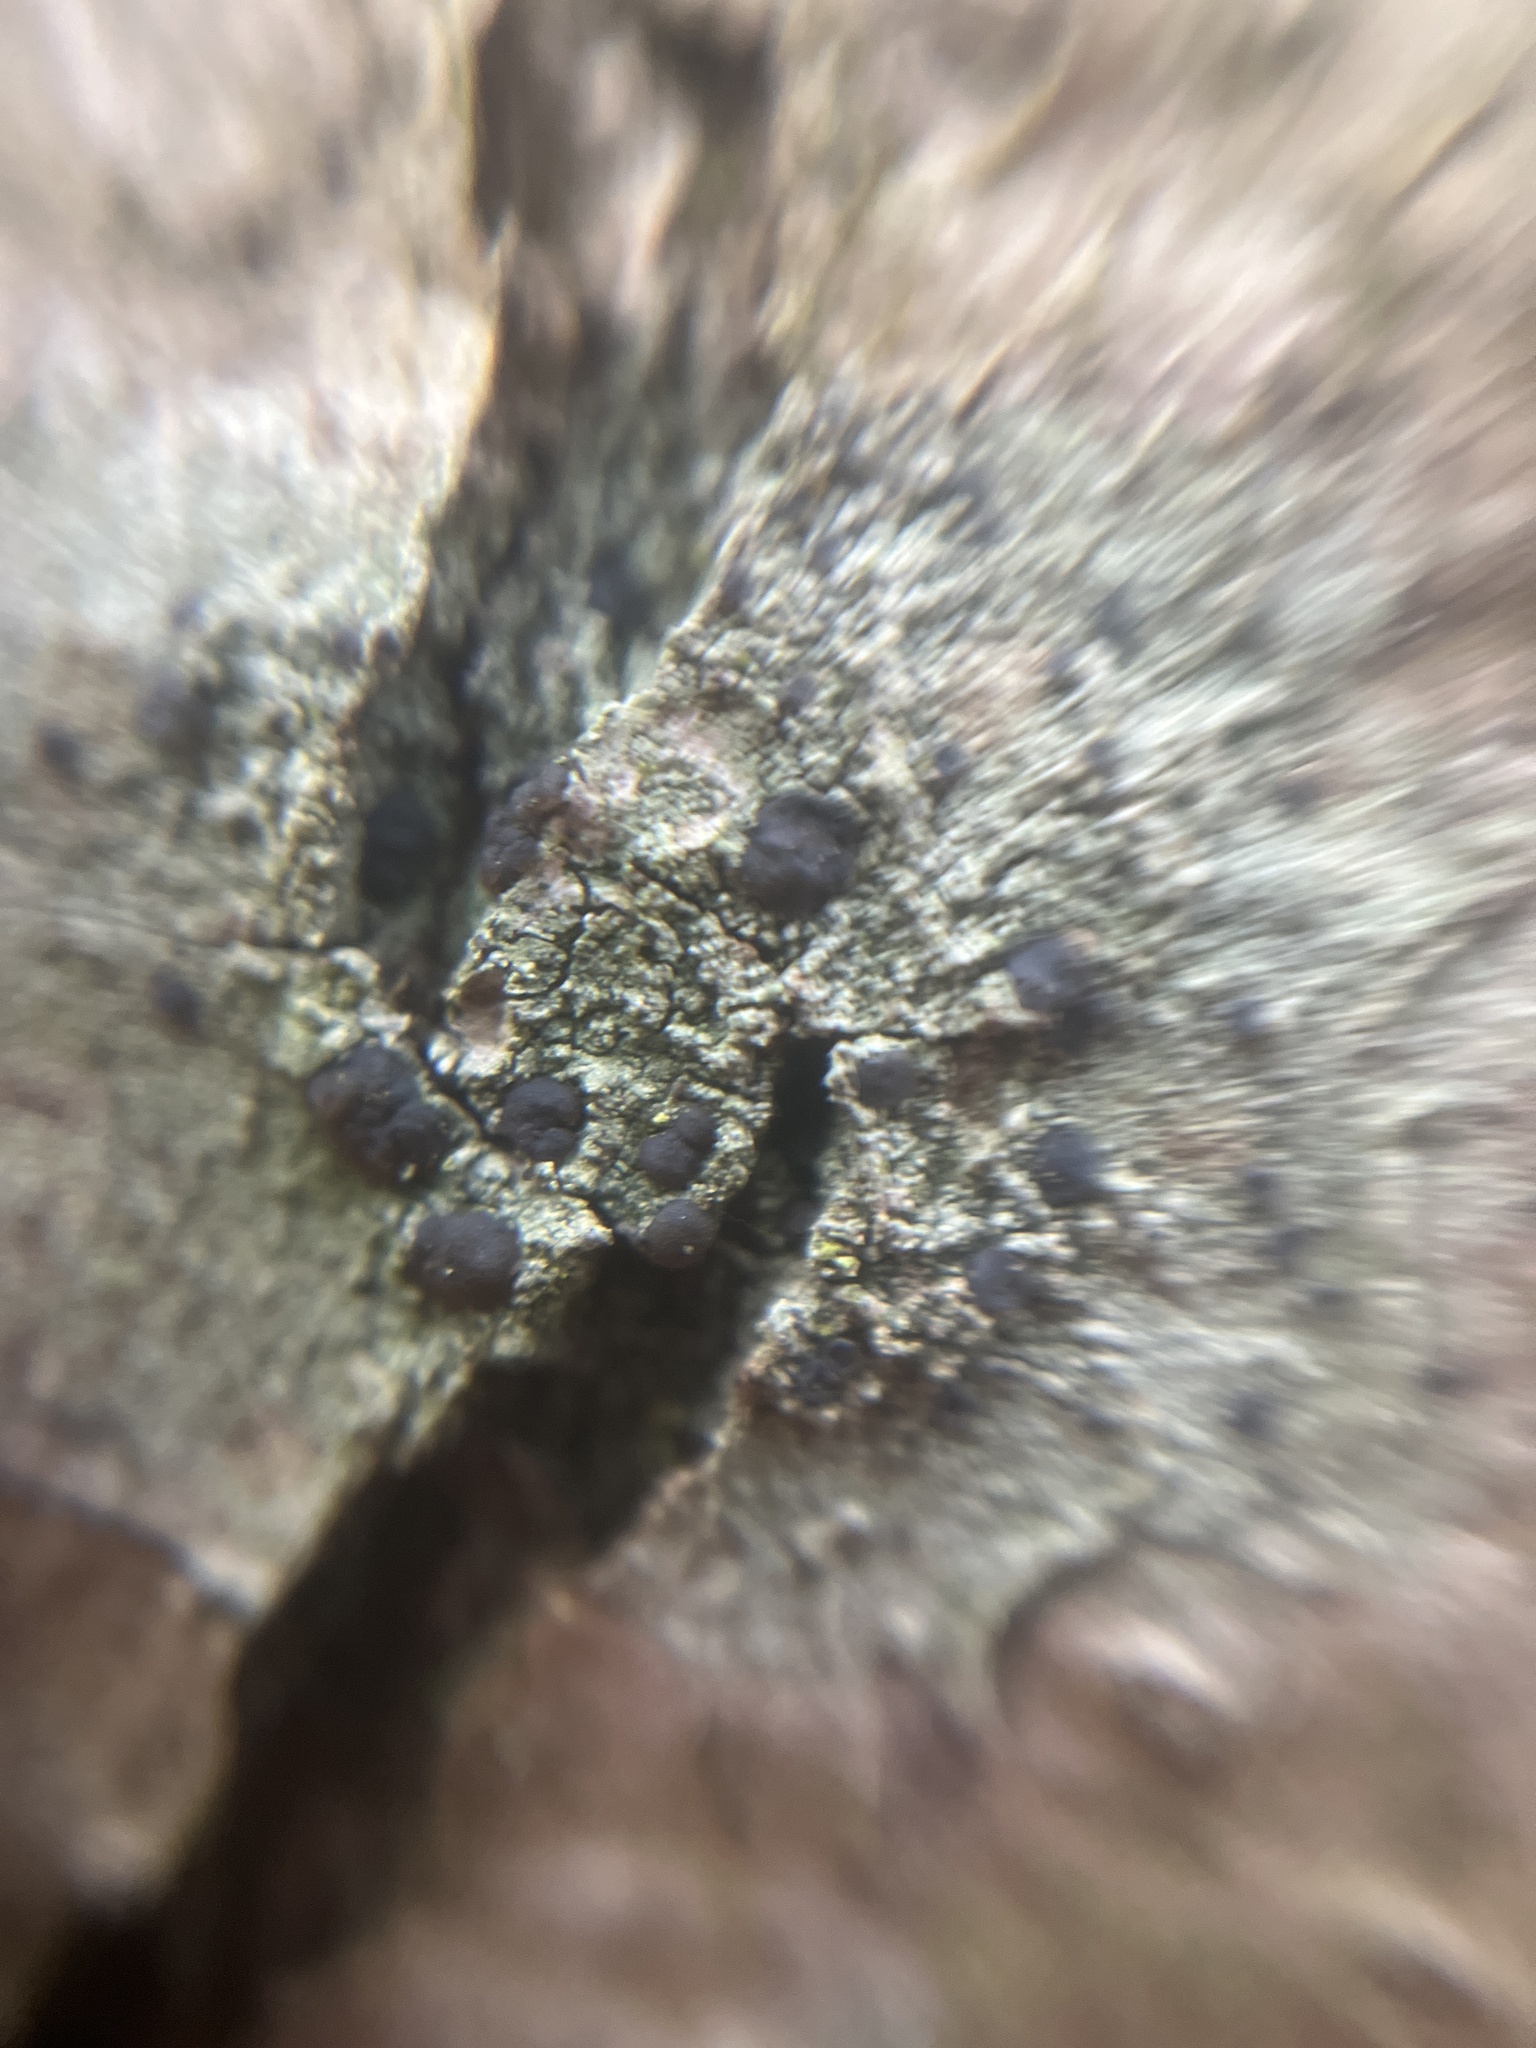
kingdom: Fungi
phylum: Ascomycota
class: Lecanoromycetes
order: Lecanorales
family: Lecanoraceae
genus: Lecidella
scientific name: Lecidella elaeochroma
